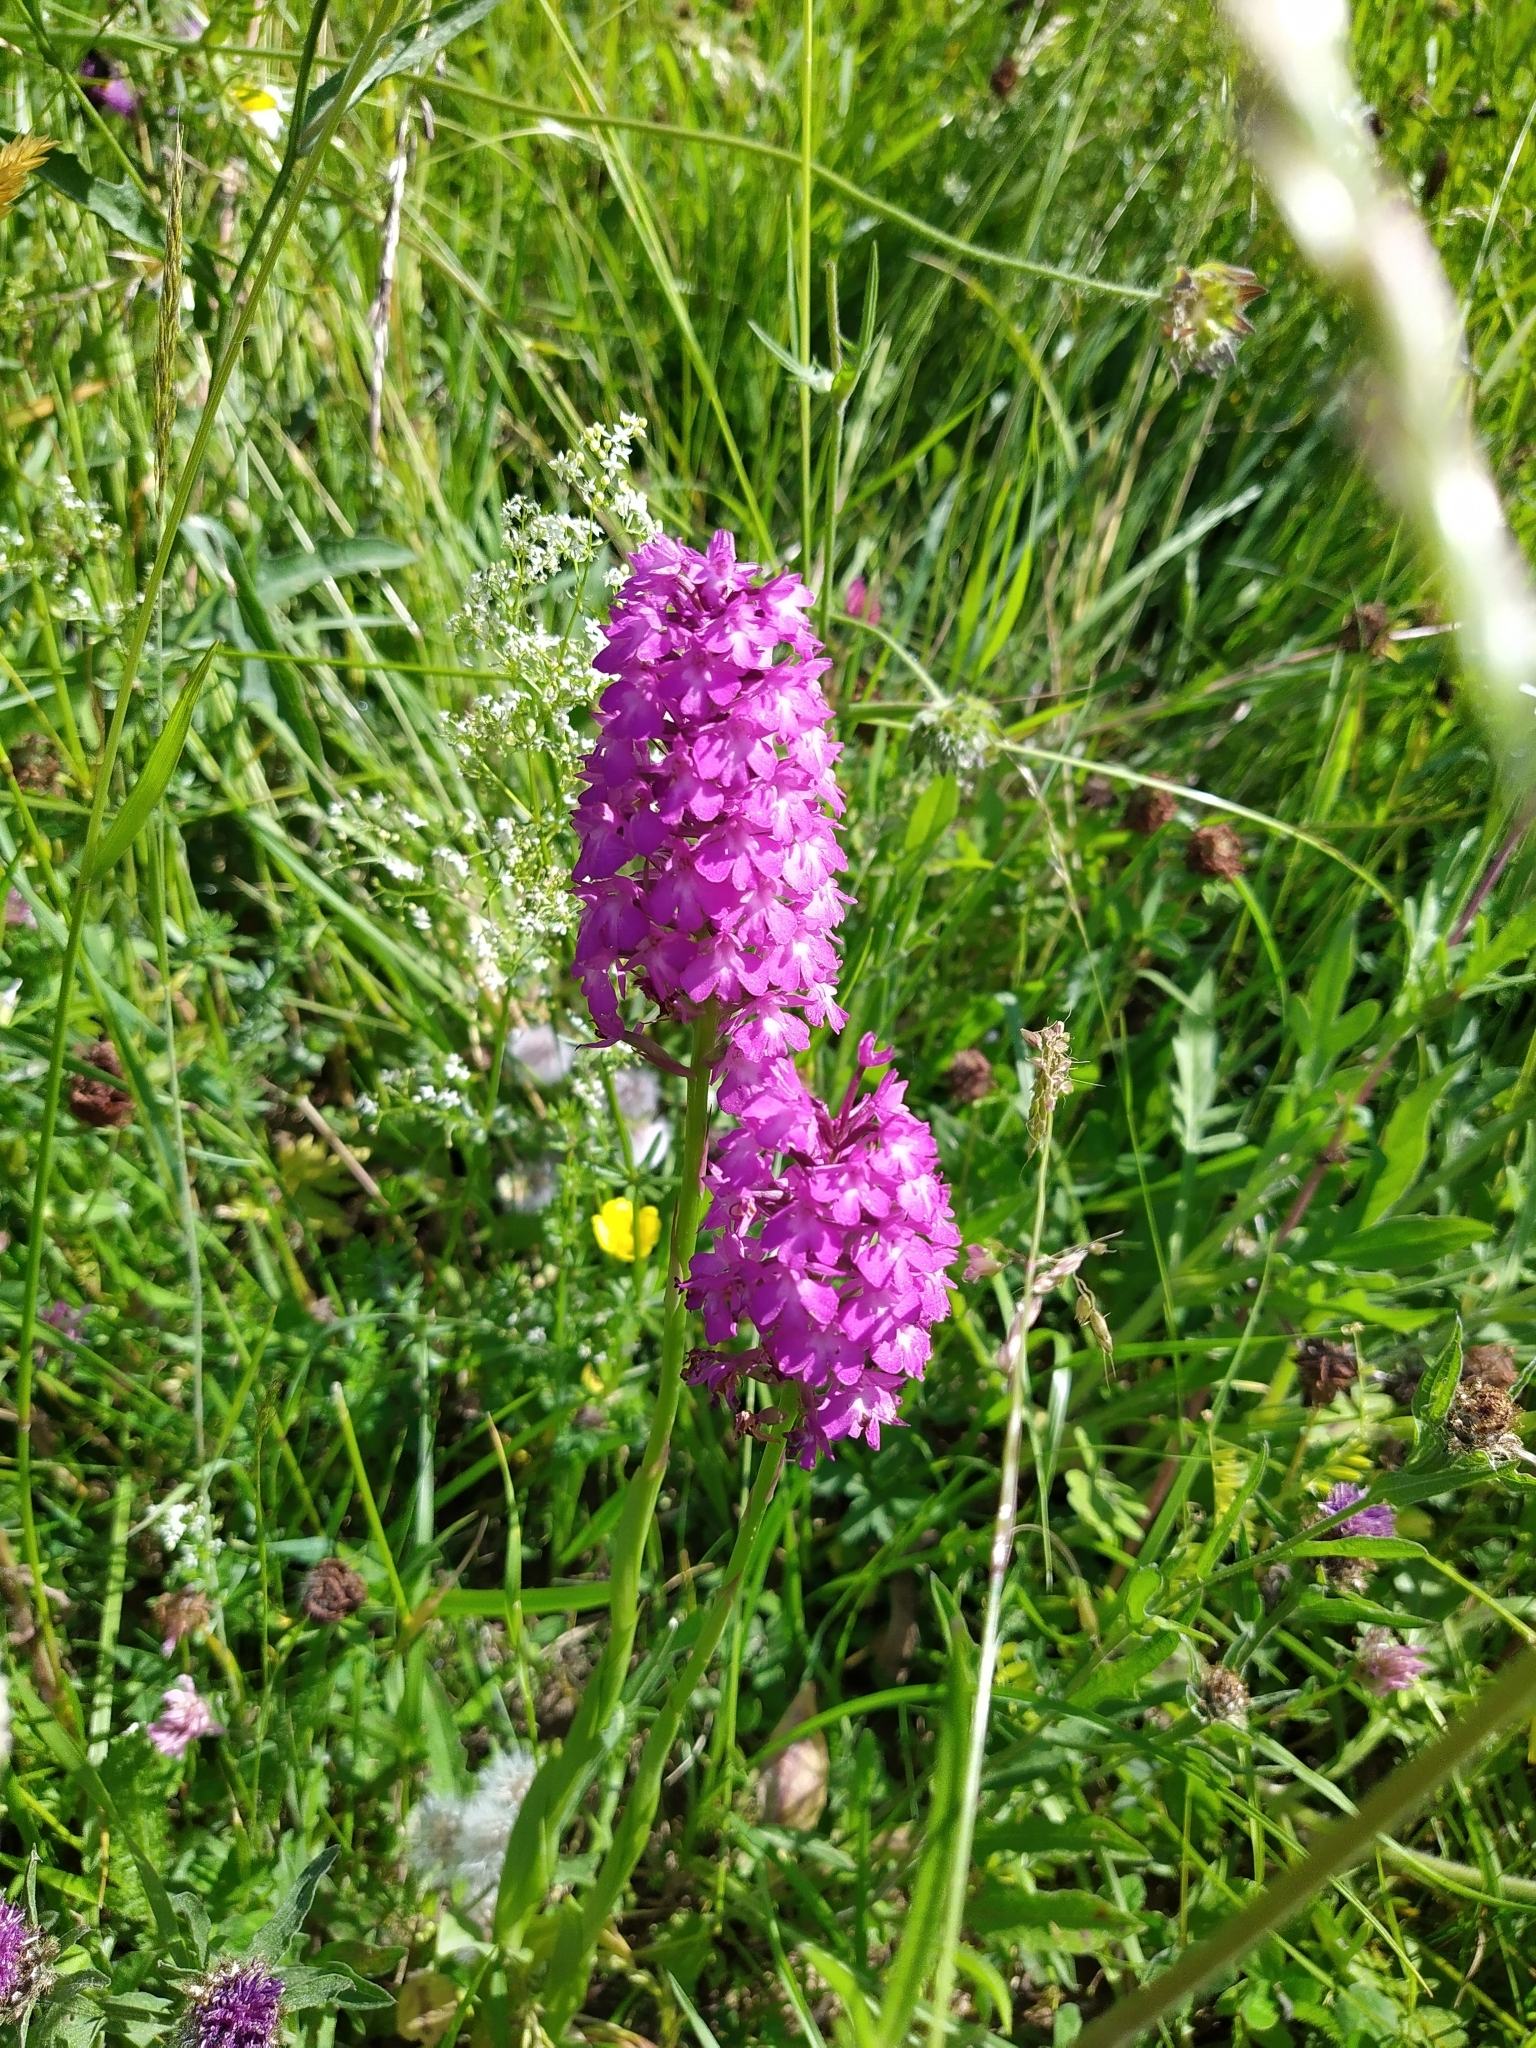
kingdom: Plantae
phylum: Tracheophyta
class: Liliopsida
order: Asparagales
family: Orchidaceae
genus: Anacamptis
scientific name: Anacamptis pyramidalis
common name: Pyramidal orchid
